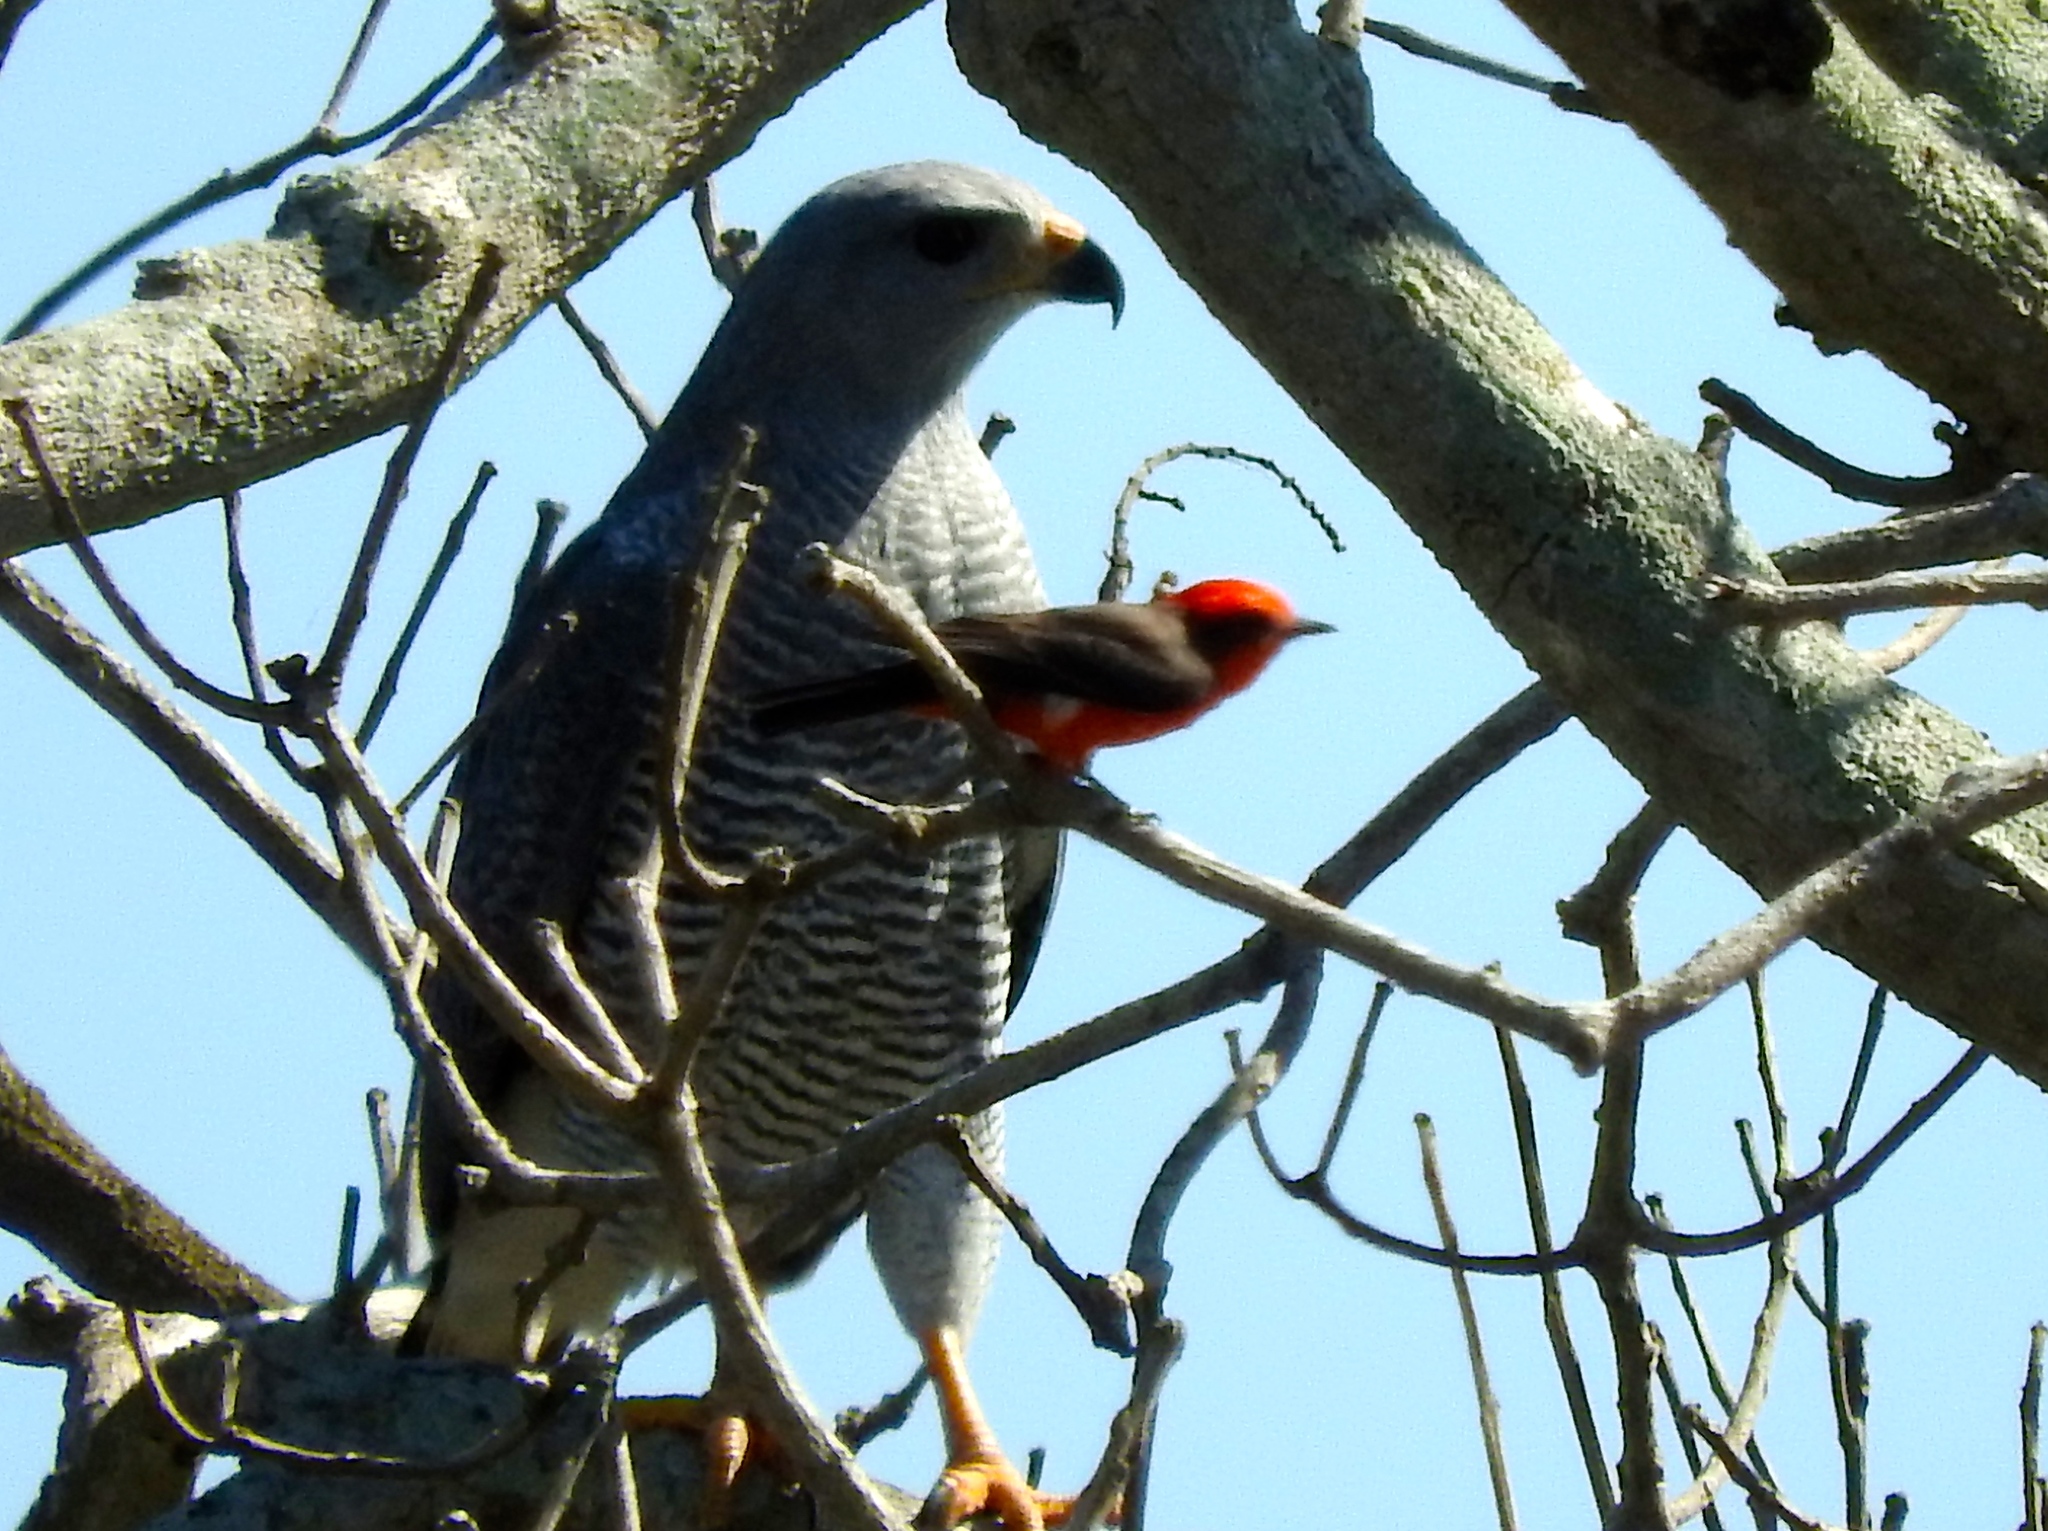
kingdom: Animalia
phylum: Chordata
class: Aves
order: Passeriformes
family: Tyrannidae
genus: Pyrocephalus
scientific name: Pyrocephalus rubinus
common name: Vermilion flycatcher
